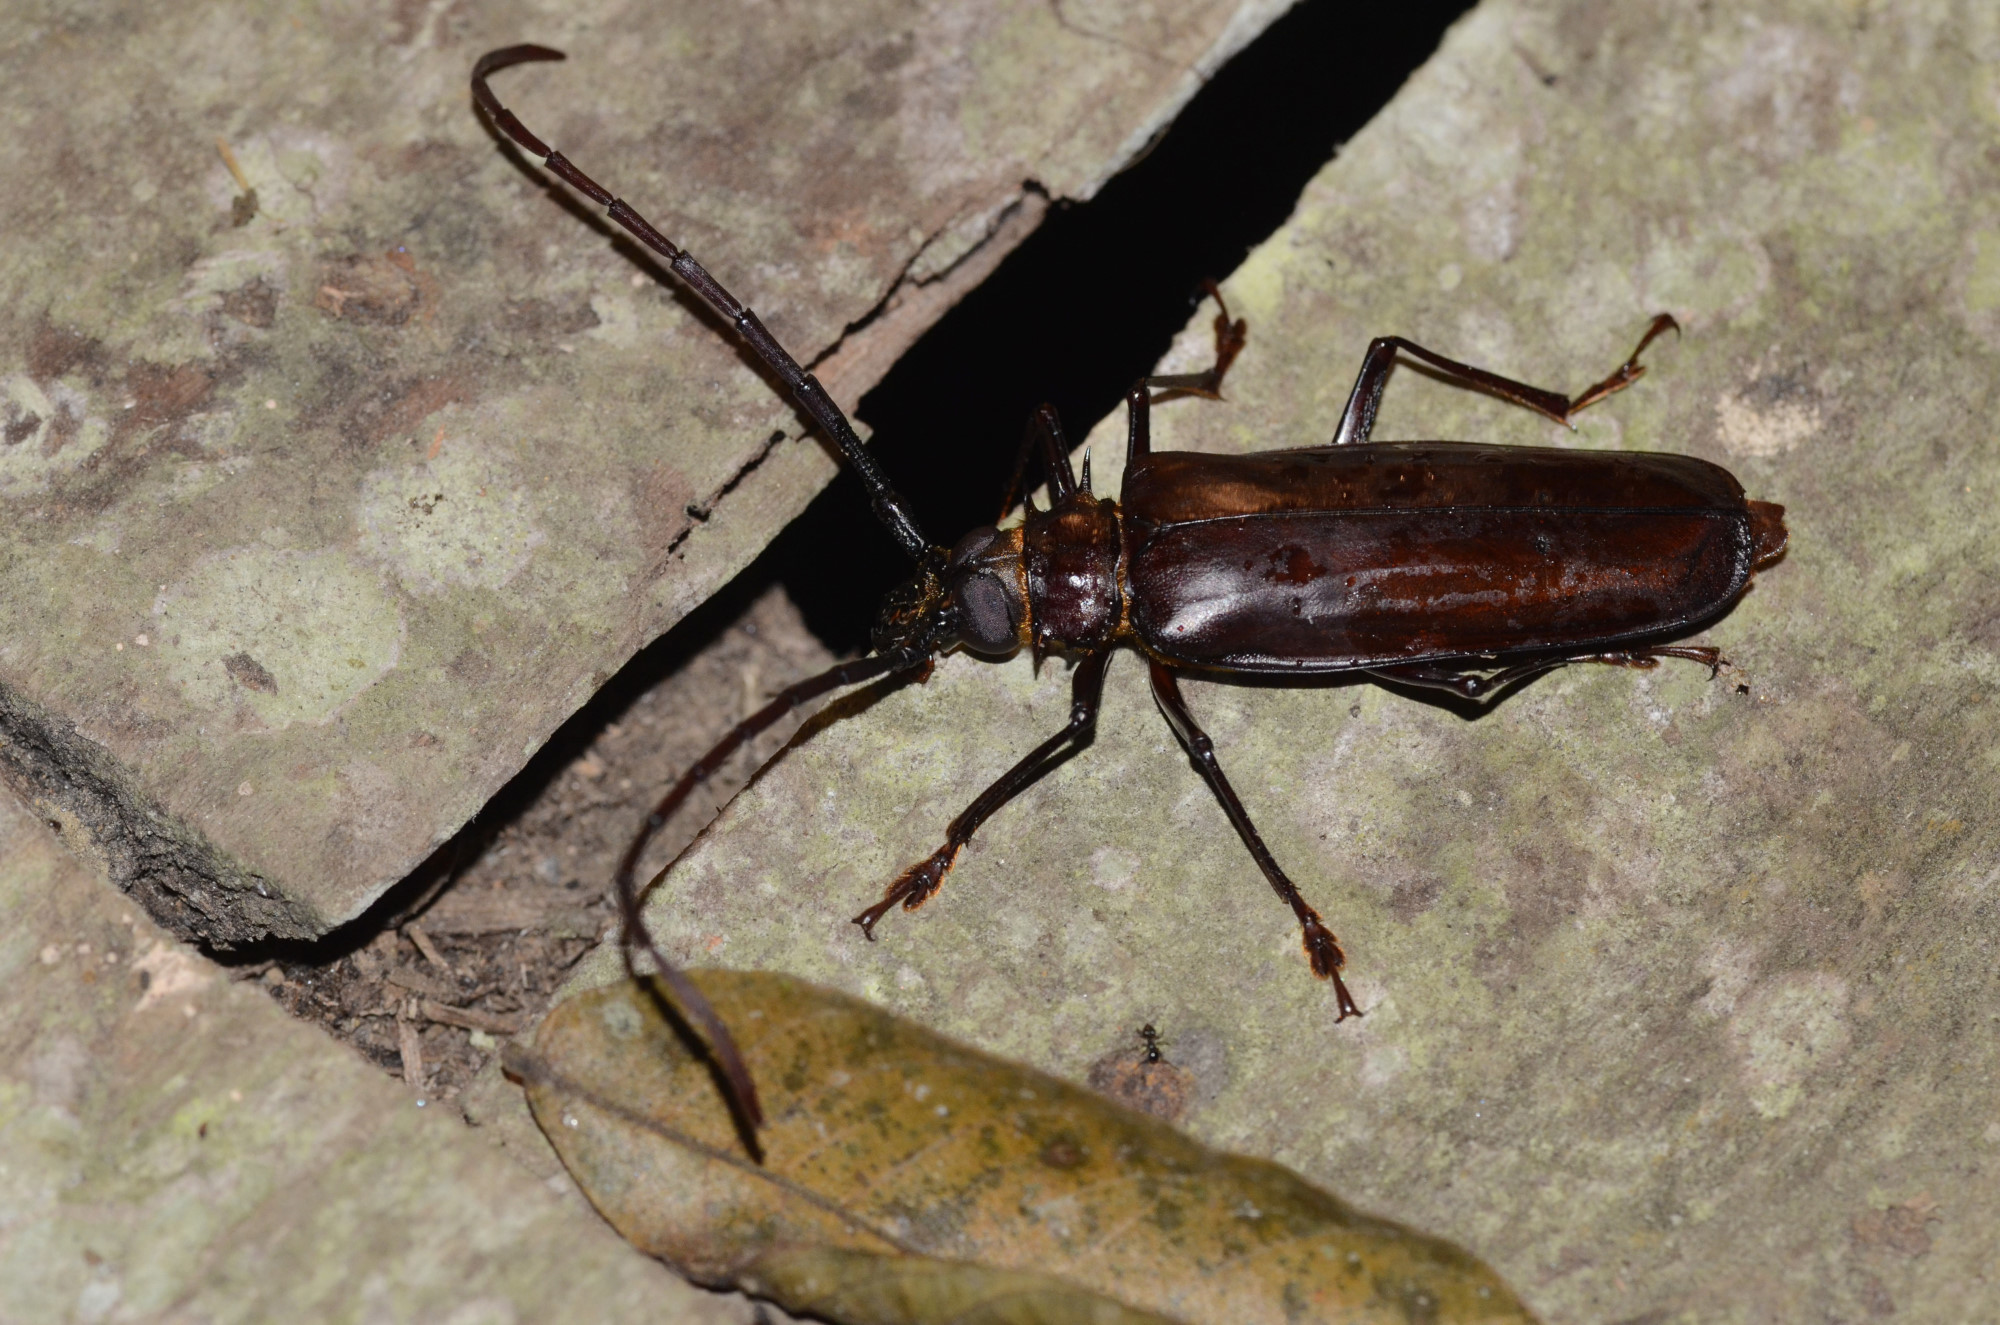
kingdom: Animalia
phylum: Arthropoda
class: Insecta
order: Coleoptera
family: Cerambycidae
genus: Derobrachus
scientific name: Derobrachus agyleus
